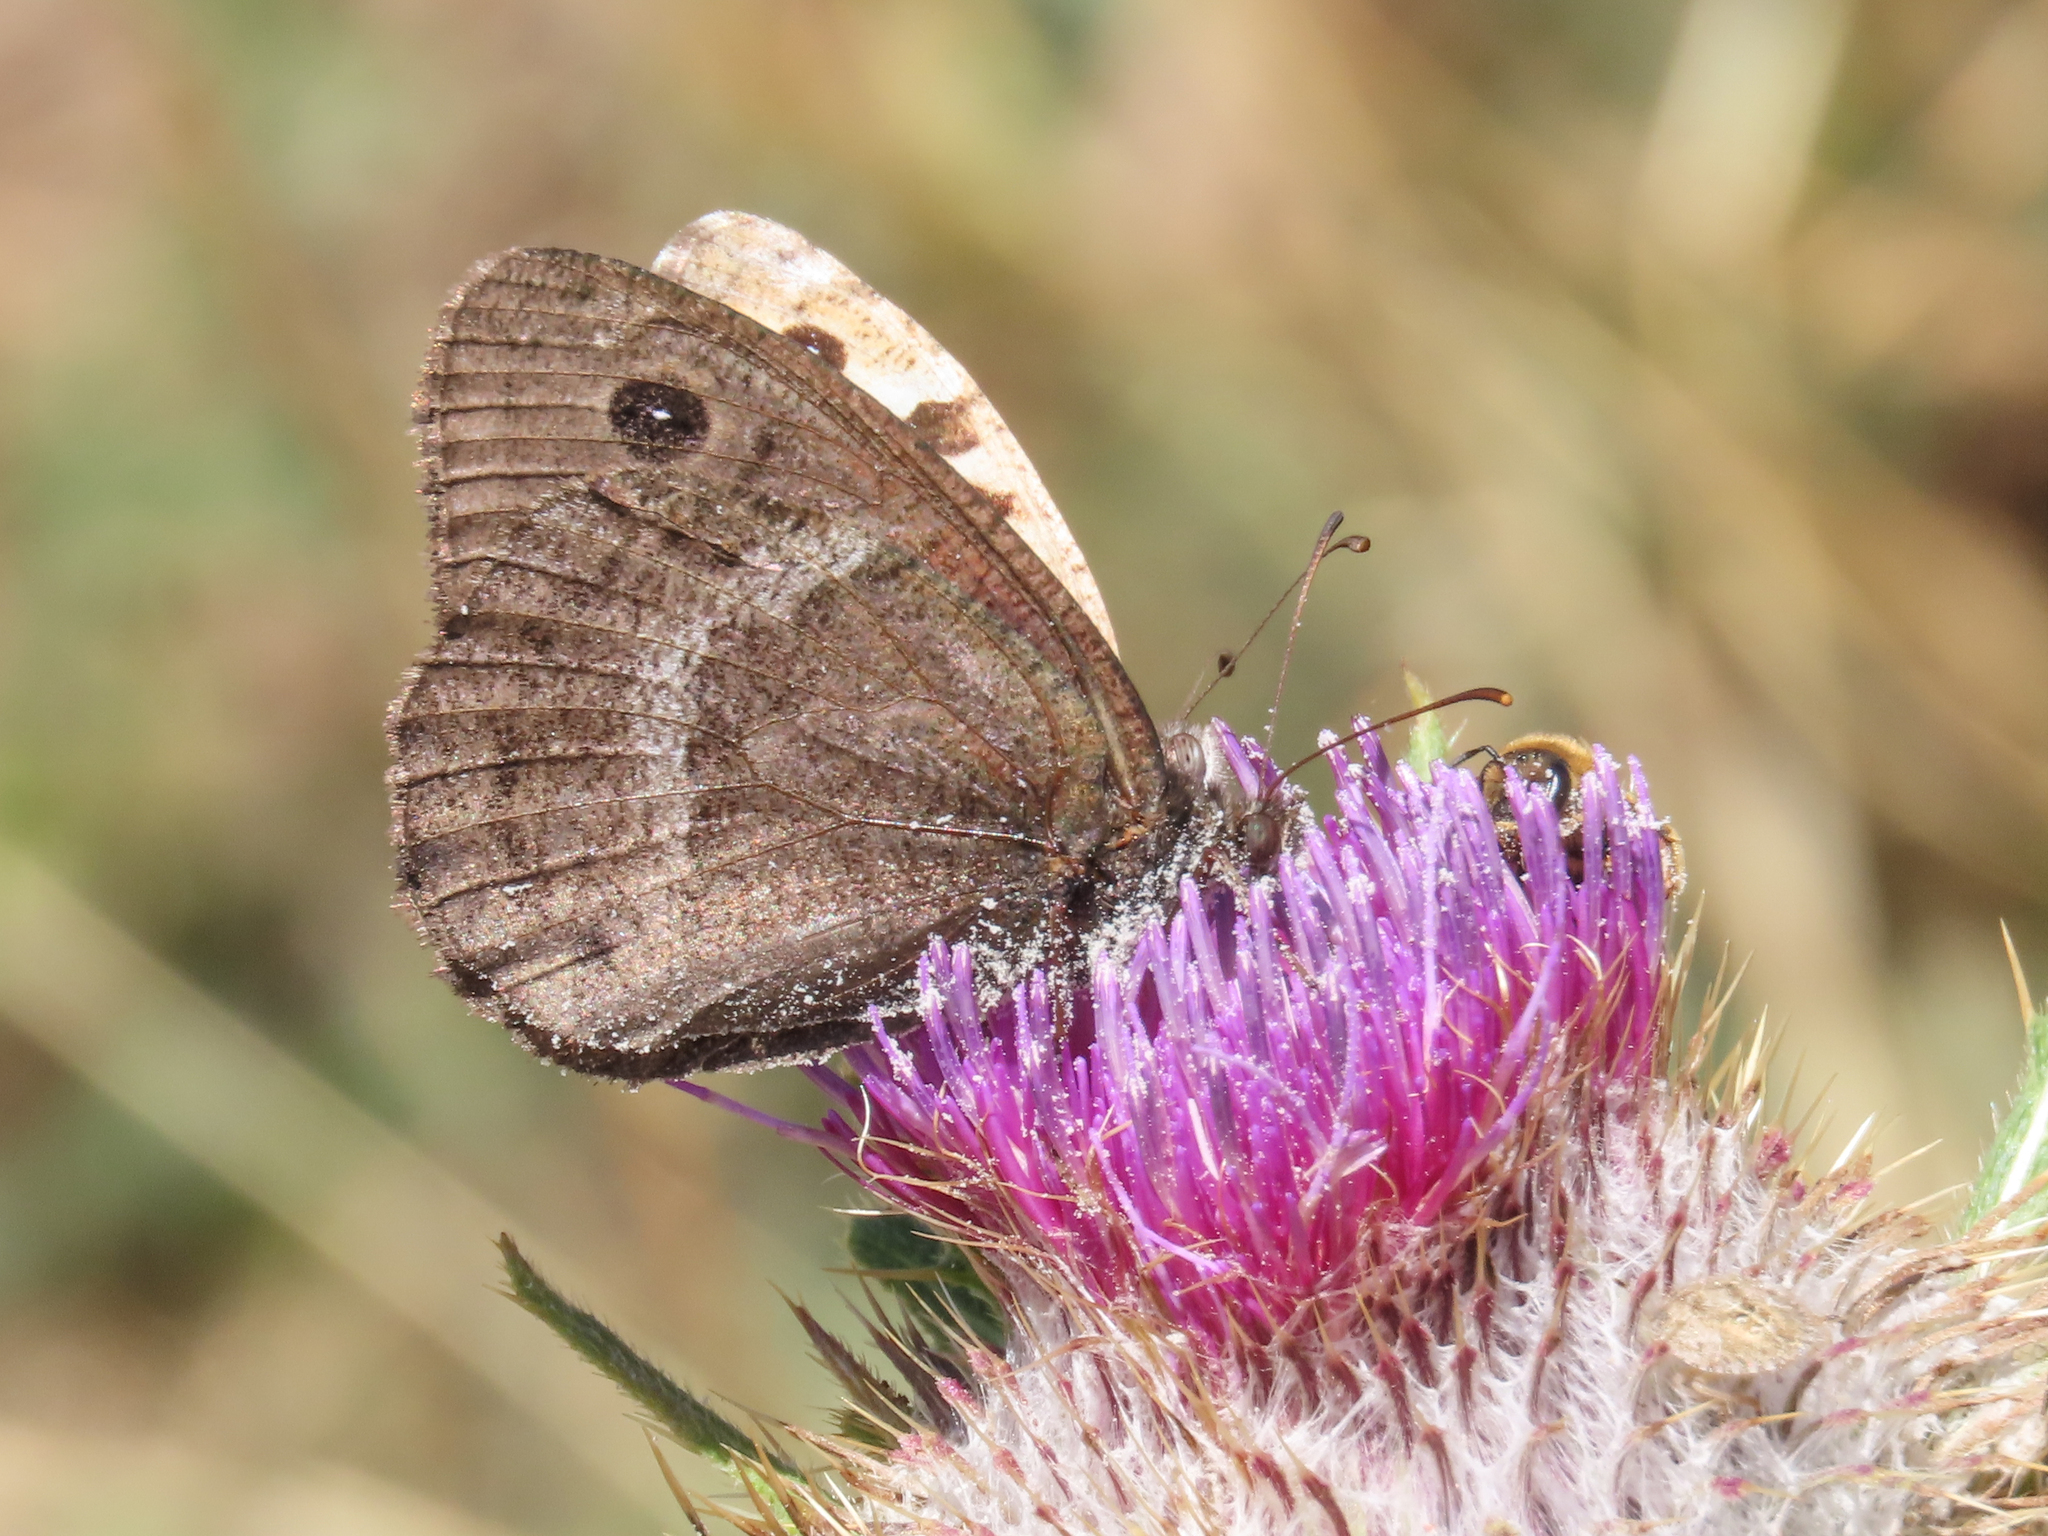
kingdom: Animalia
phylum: Arthropoda
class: Insecta
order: Lepidoptera
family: Nymphalidae
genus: Satyrus
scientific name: Satyrus ferula
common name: Great sooty satyr
